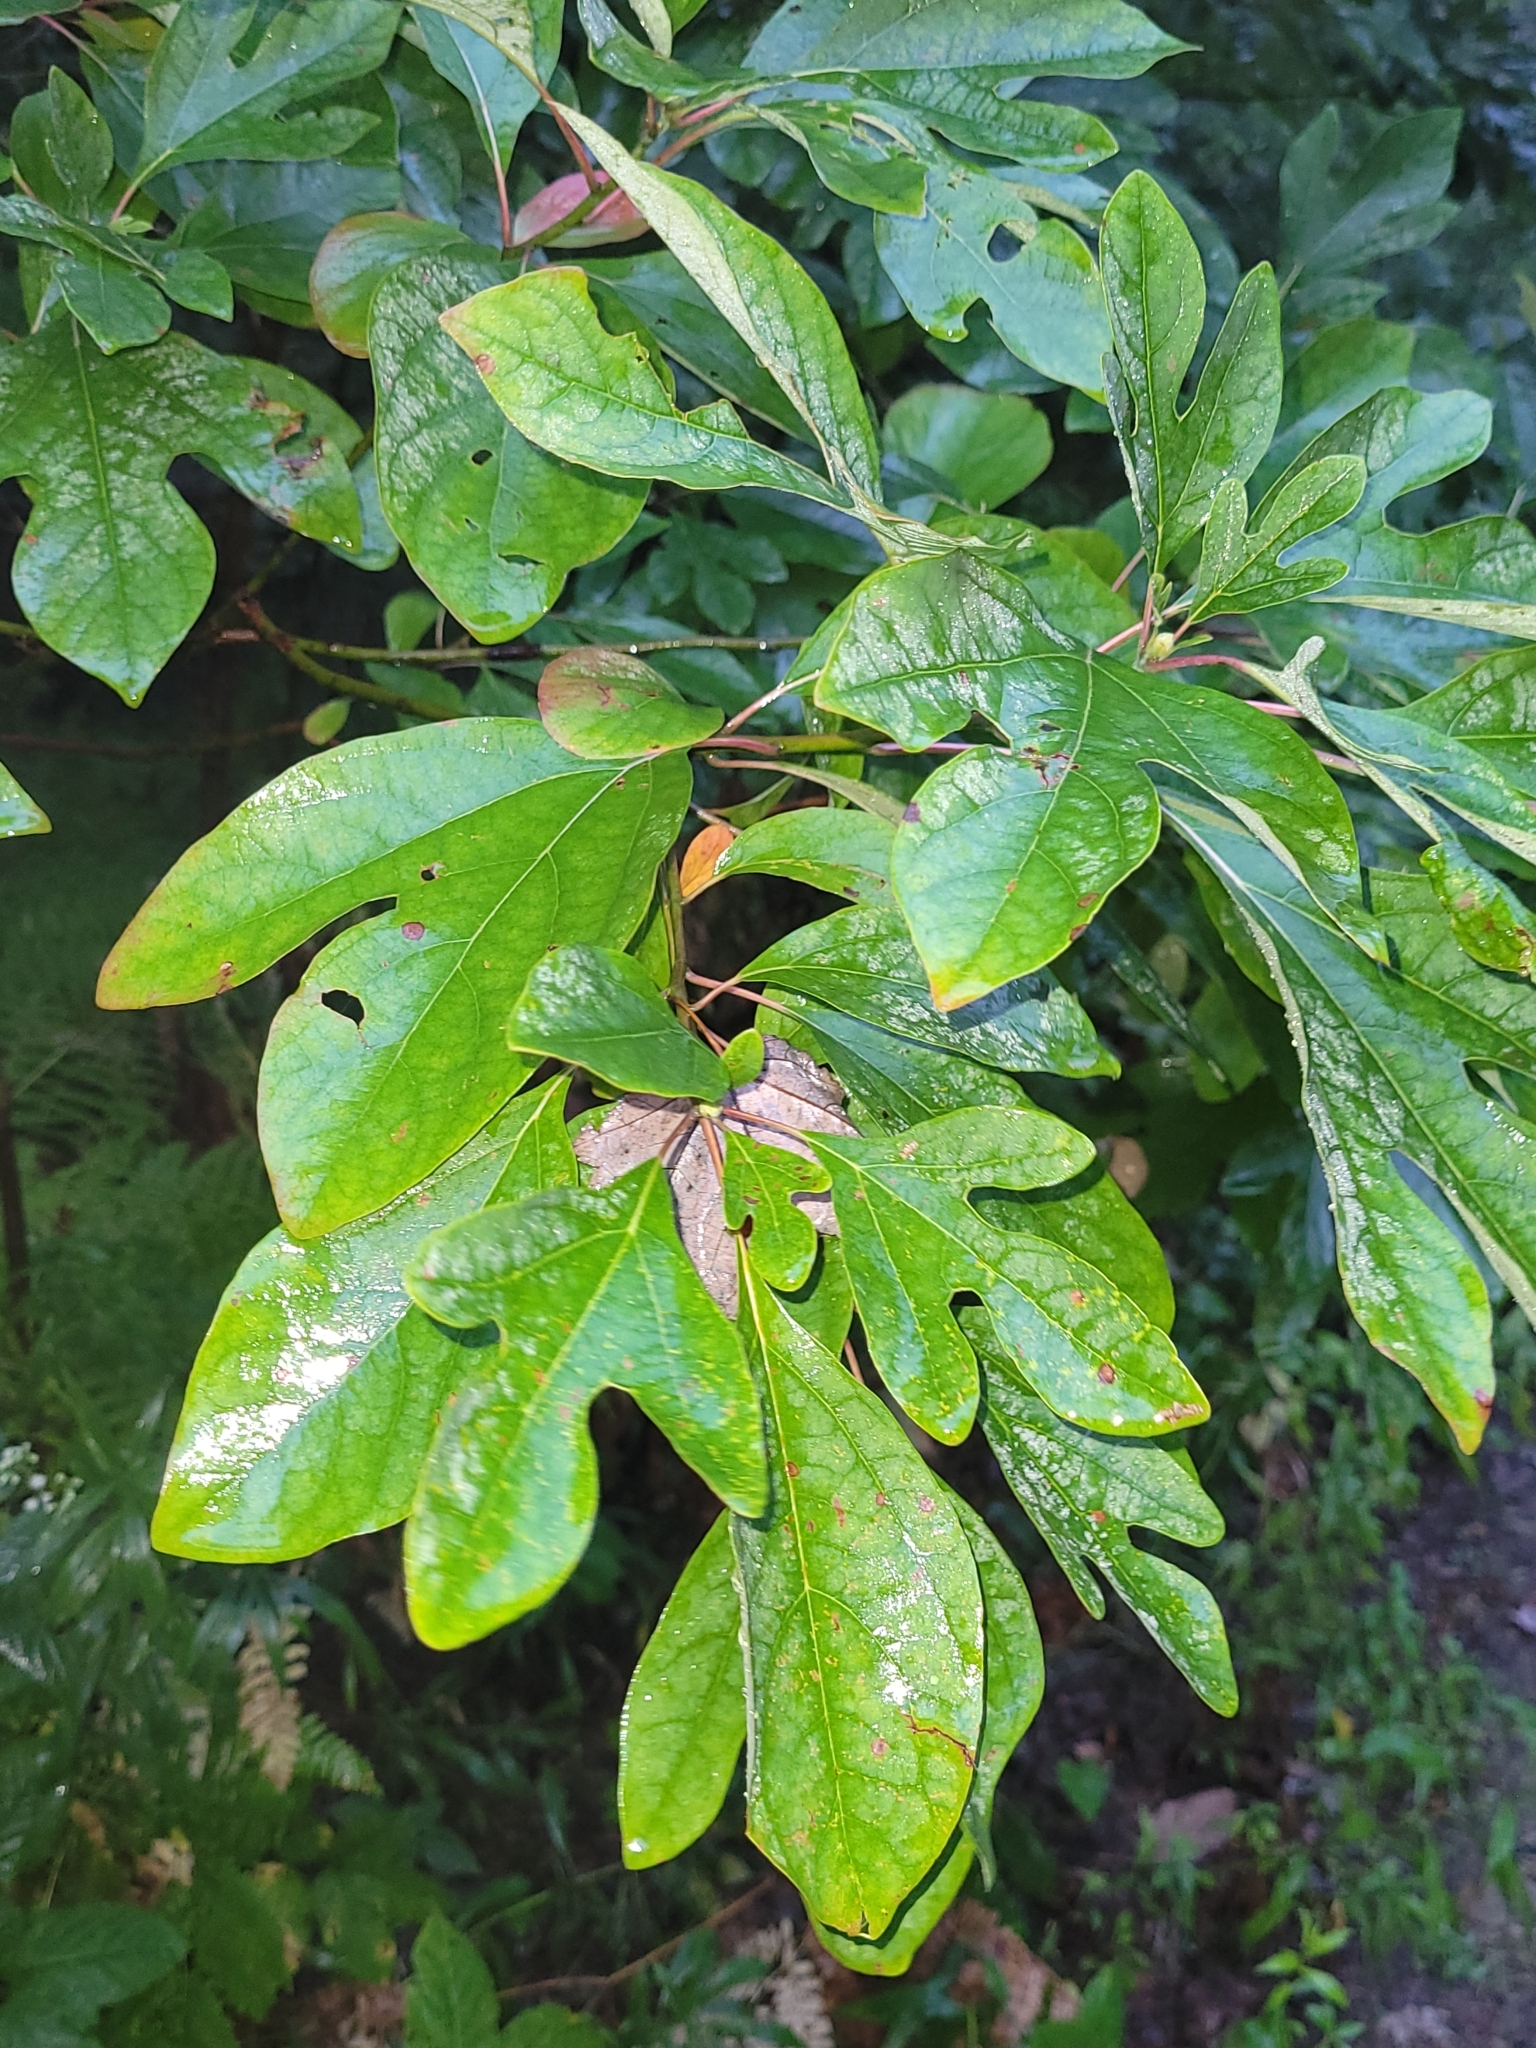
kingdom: Plantae
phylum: Tracheophyta
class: Magnoliopsida
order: Laurales
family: Lauraceae
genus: Sassafras
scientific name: Sassafras albidum
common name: Sassafras
